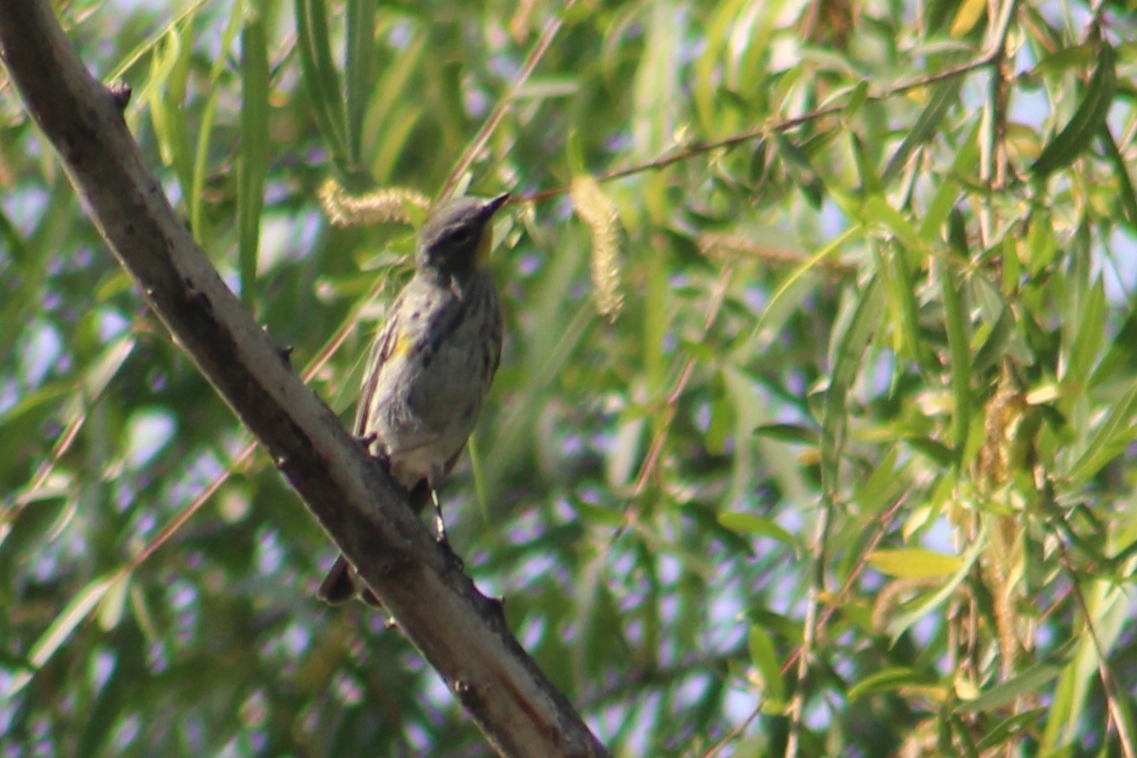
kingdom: Animalia
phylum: Chordata
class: Aves
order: Passeriformes
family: Parulidae
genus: Setophaga
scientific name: Setophaga coronata
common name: Myrtle warbler
